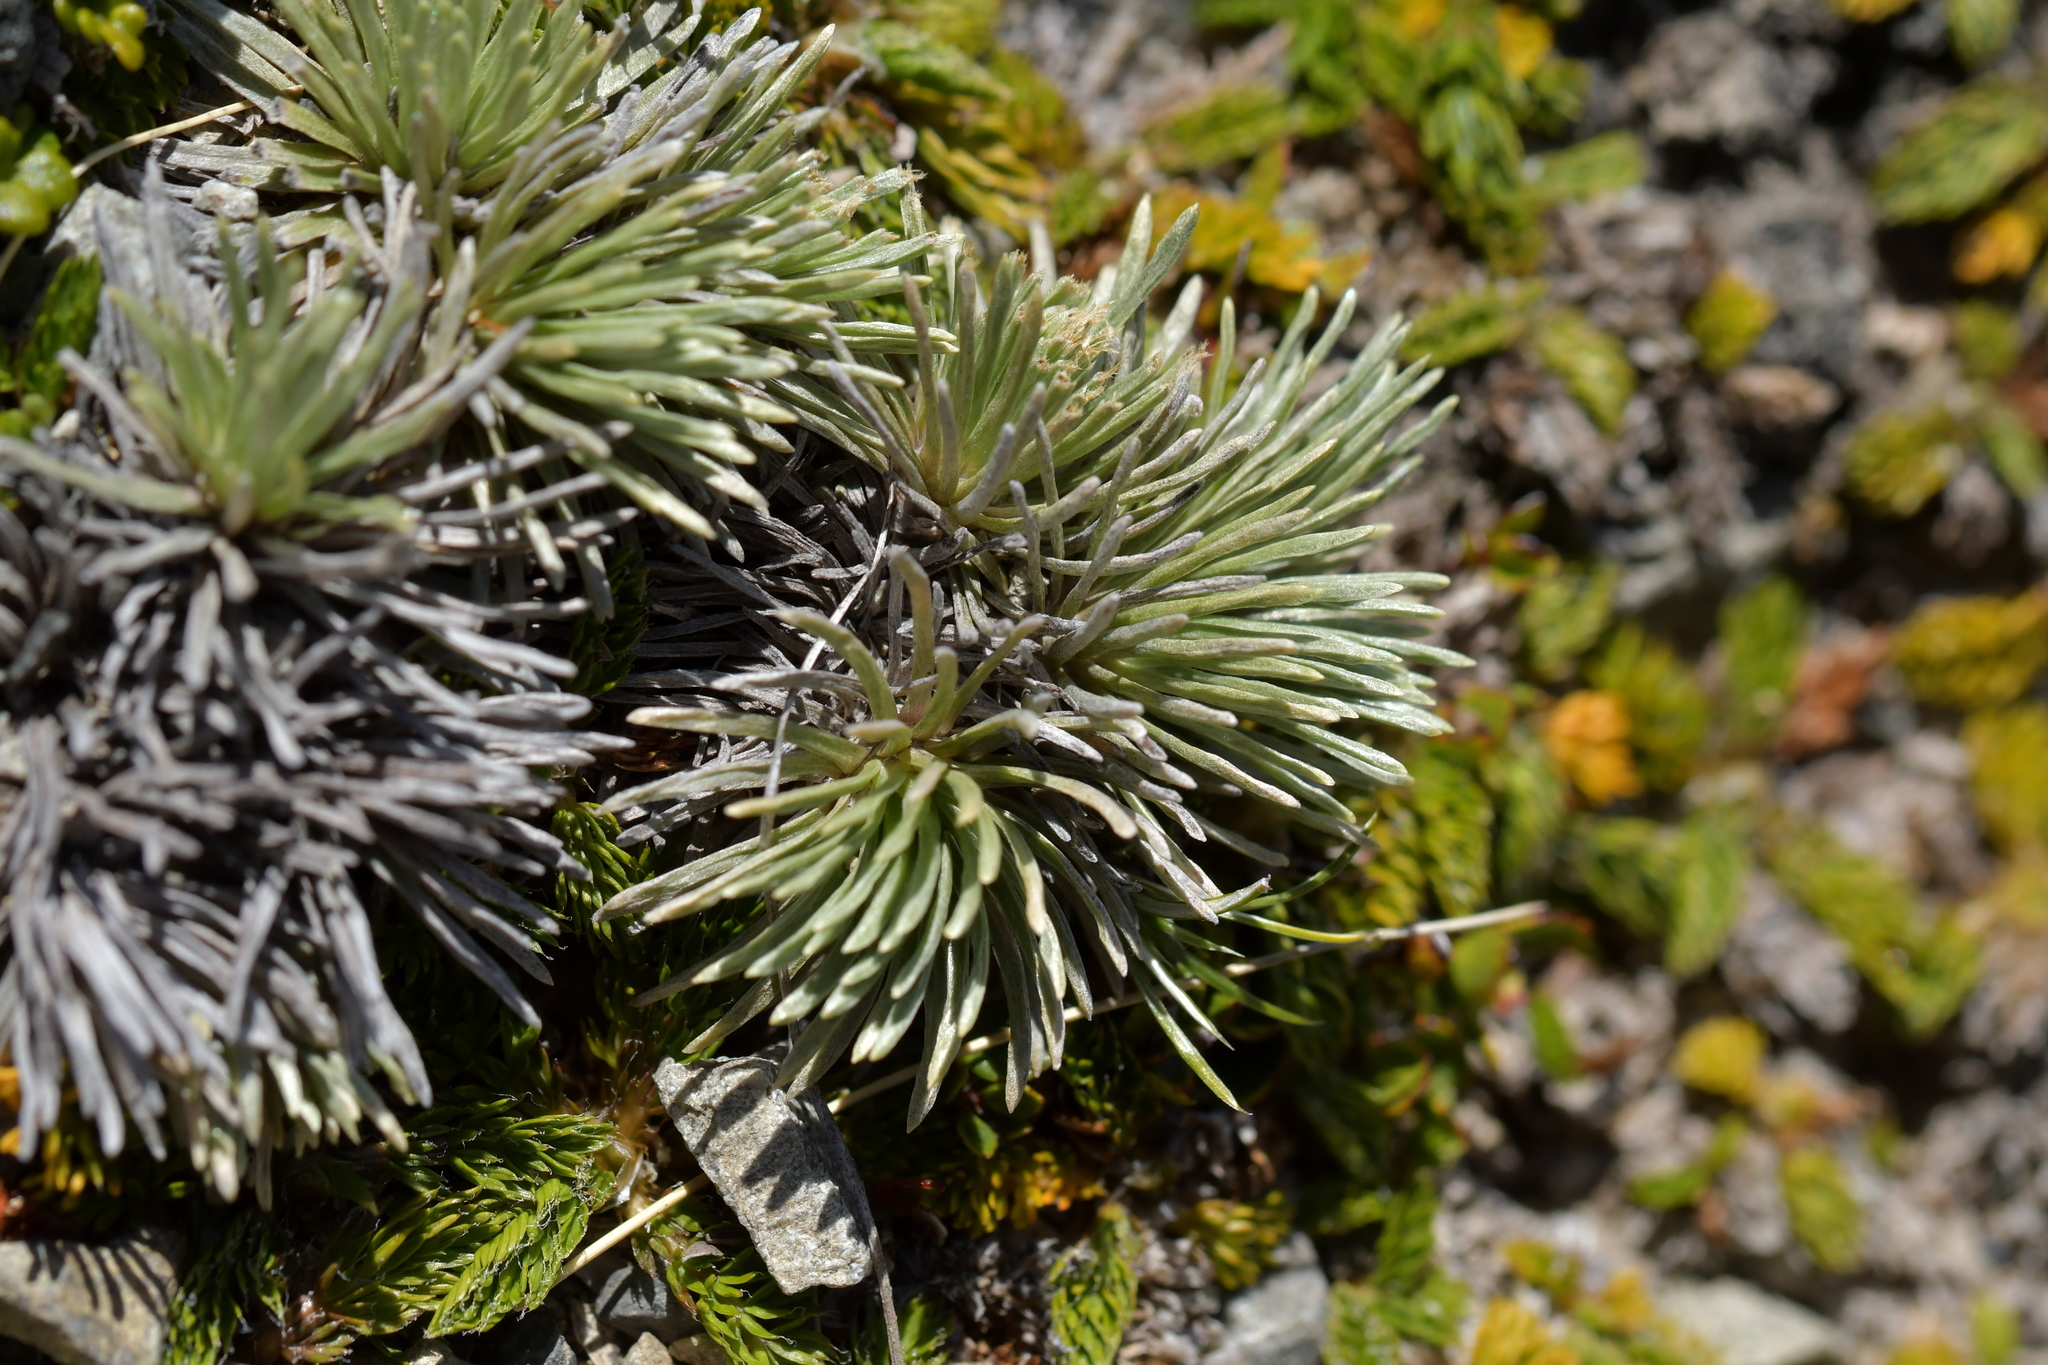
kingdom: Plantae
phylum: Tracheophyta
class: Magnoliopsida
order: Asterales
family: Asteraceae
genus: Celmisia
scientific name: Celmisia sessiliflora
